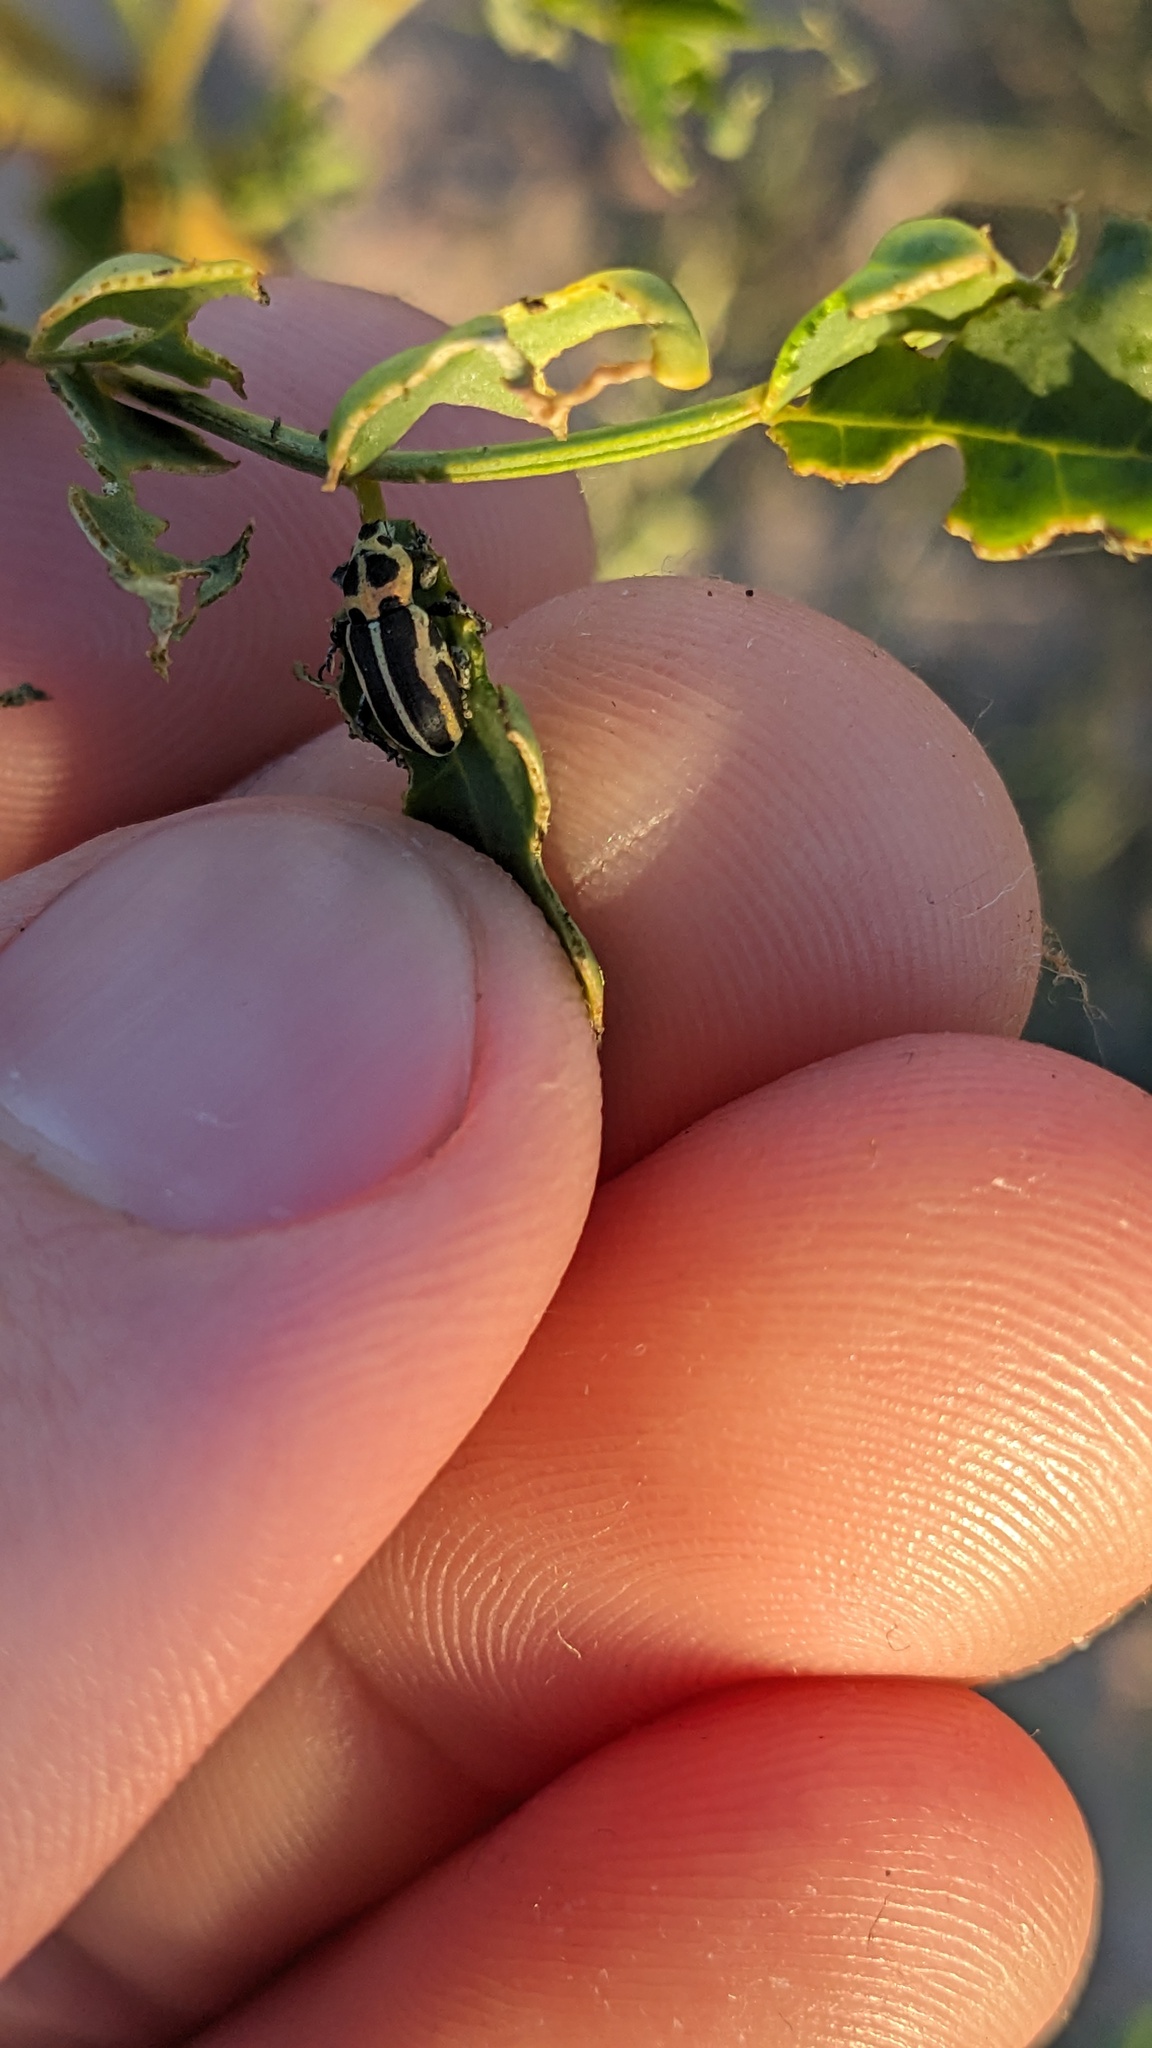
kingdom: Animalia
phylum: Arthropoda
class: Insecta
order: Coleoptera
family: Curculionidae
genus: Eudiagogus
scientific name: Eudiagogus pulcher
